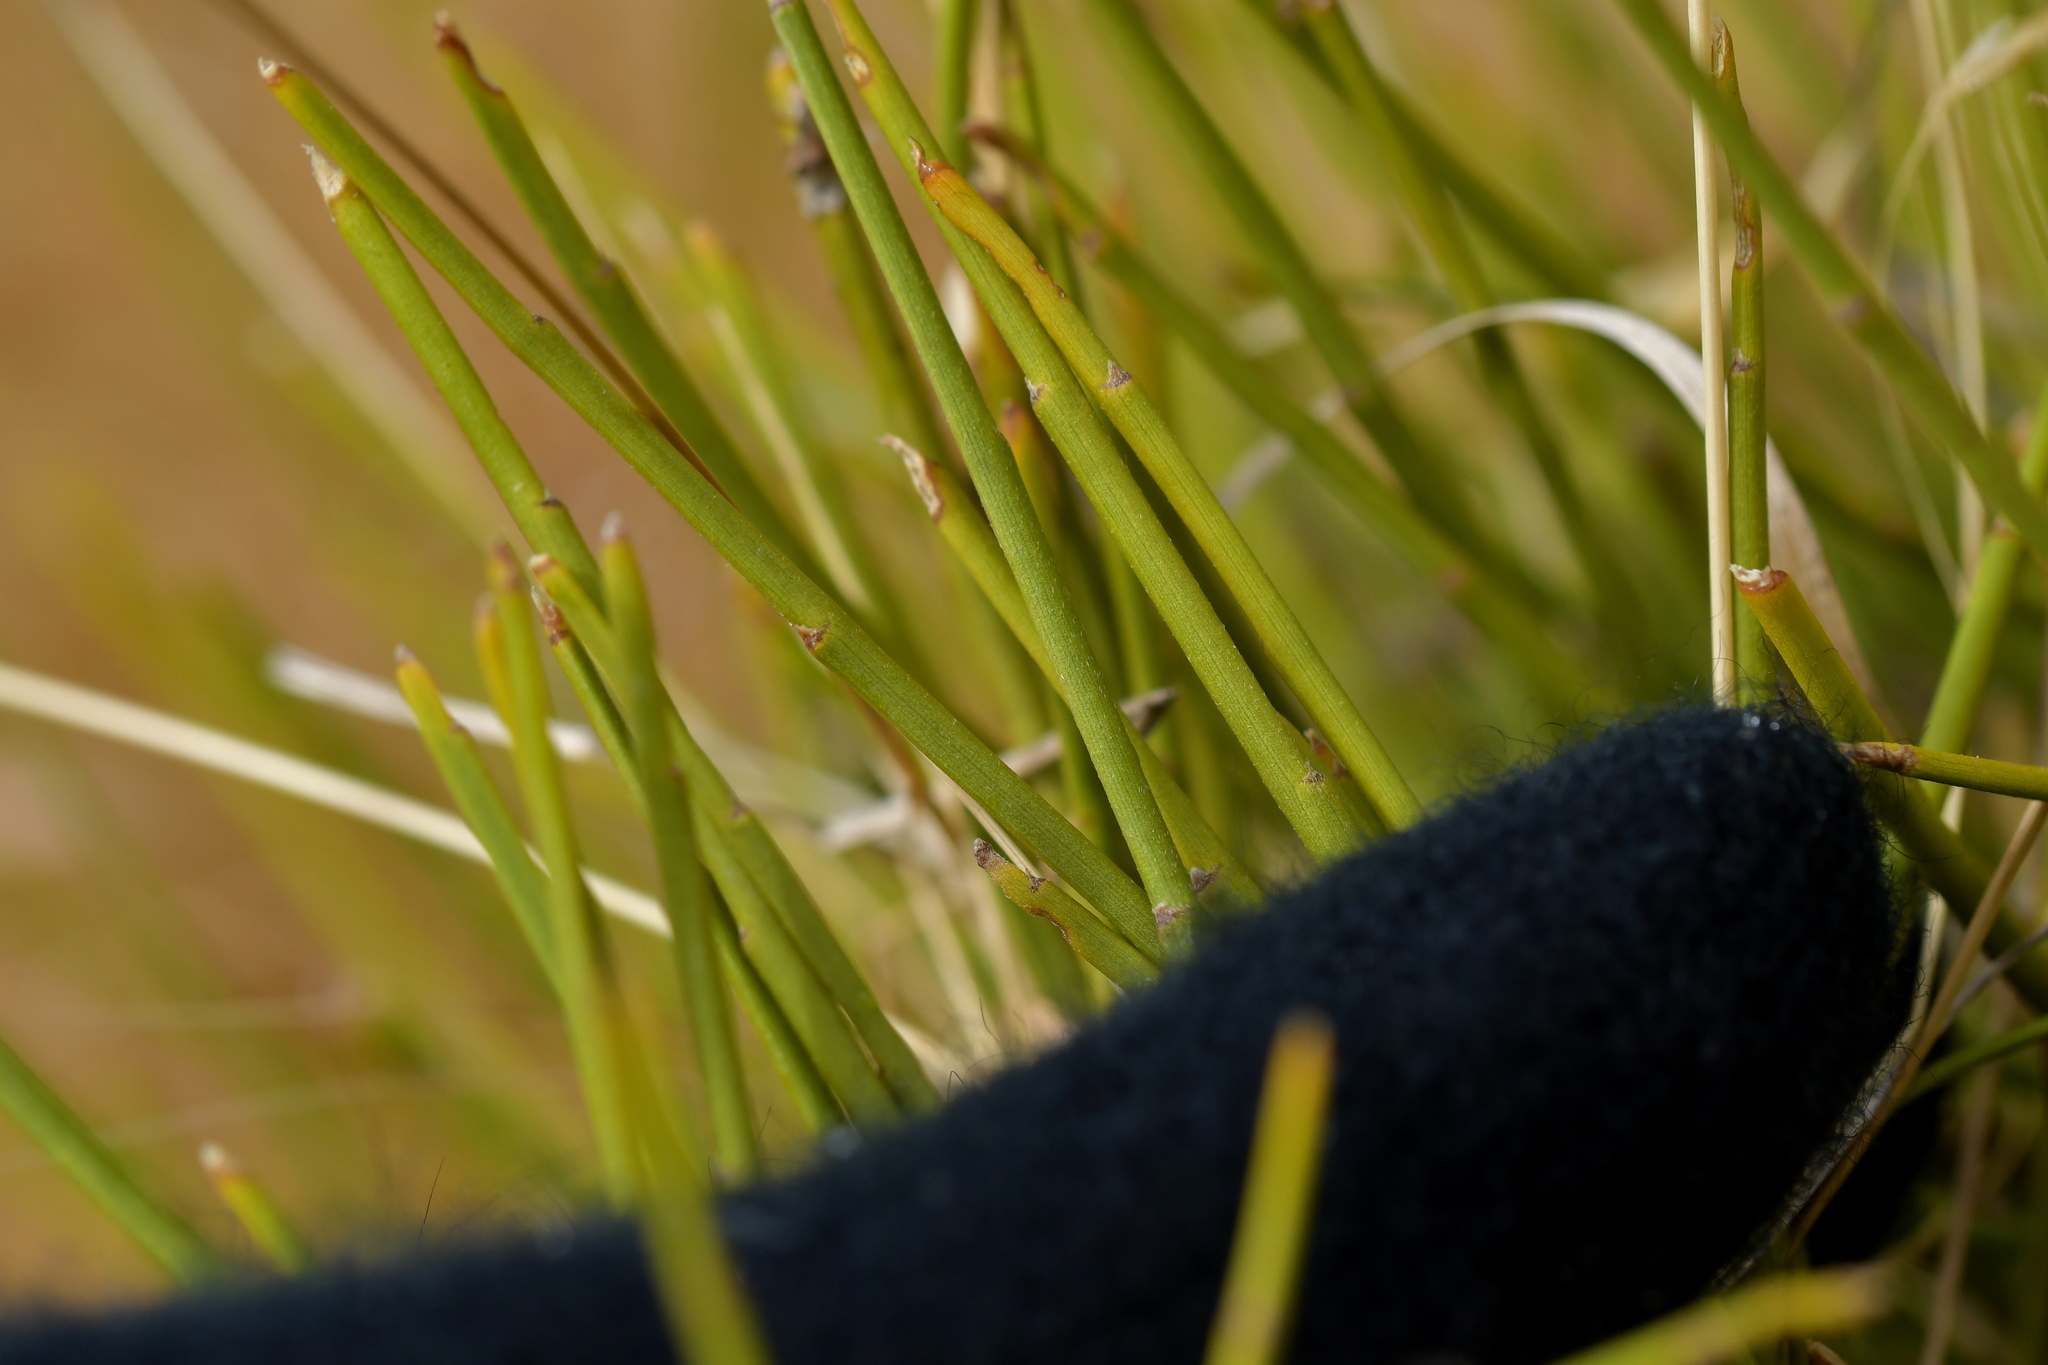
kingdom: Plantae
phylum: Tracheophyta
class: Magnoliopsida
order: Fabales
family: Fabaceae
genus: Carmichaelia
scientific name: Carmichaelia petriei
